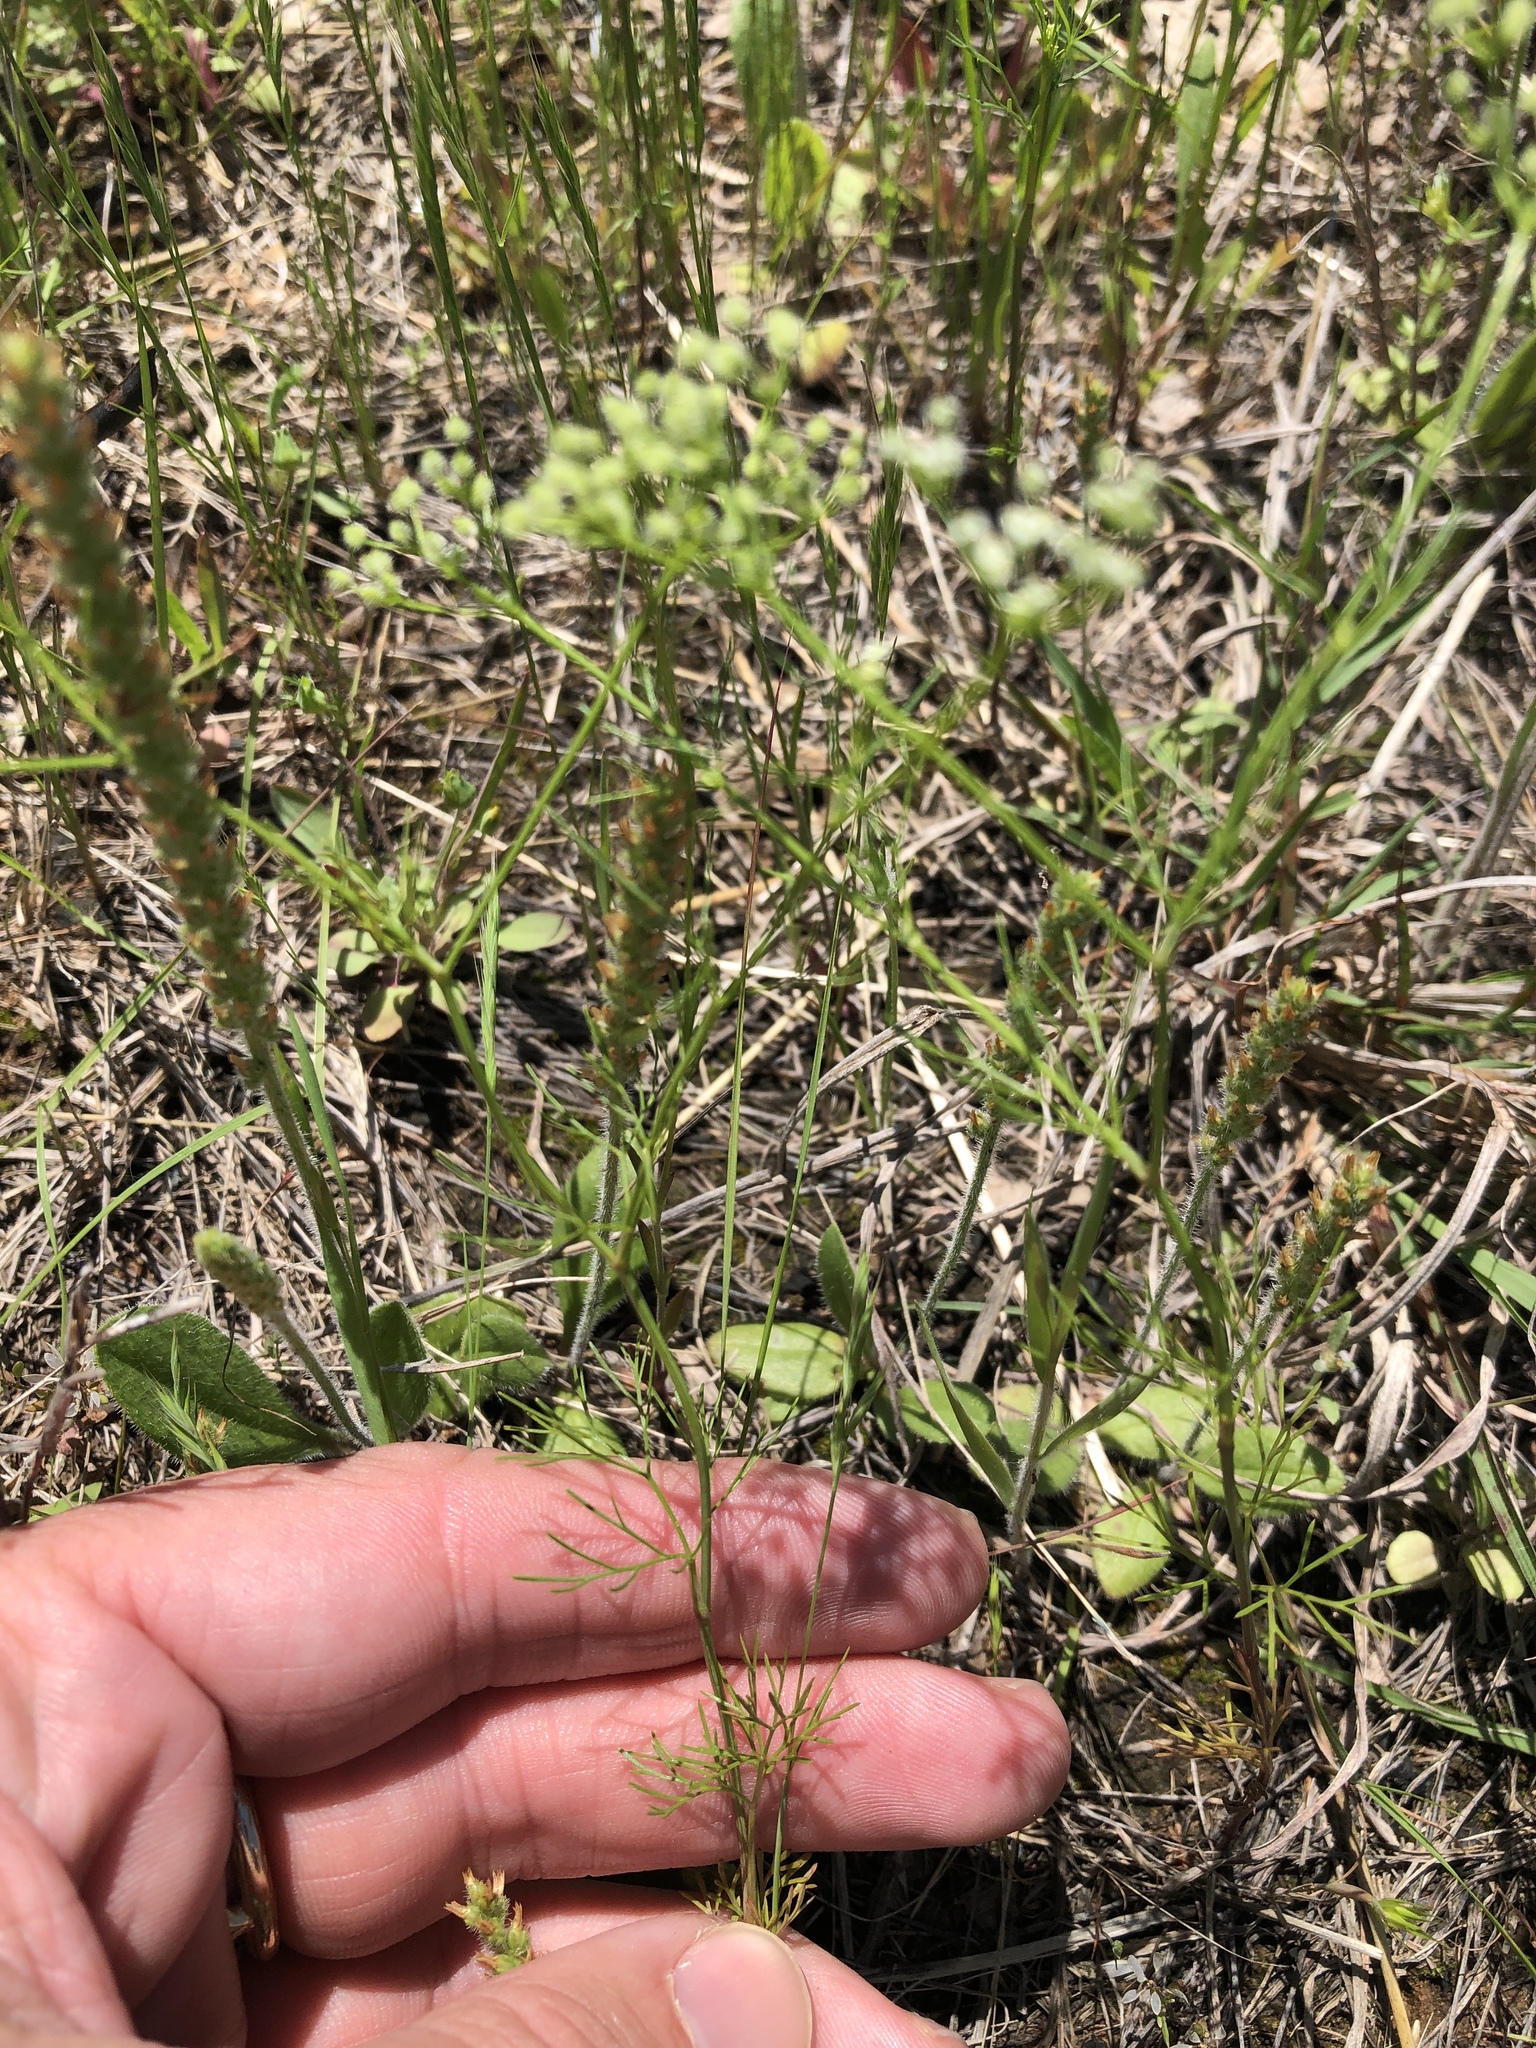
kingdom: Plantae
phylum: Tracheophyta
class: Magnoliopsida
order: Apiales
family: Apiaceae
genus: Spermolepis
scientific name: Spermolepis echinata
